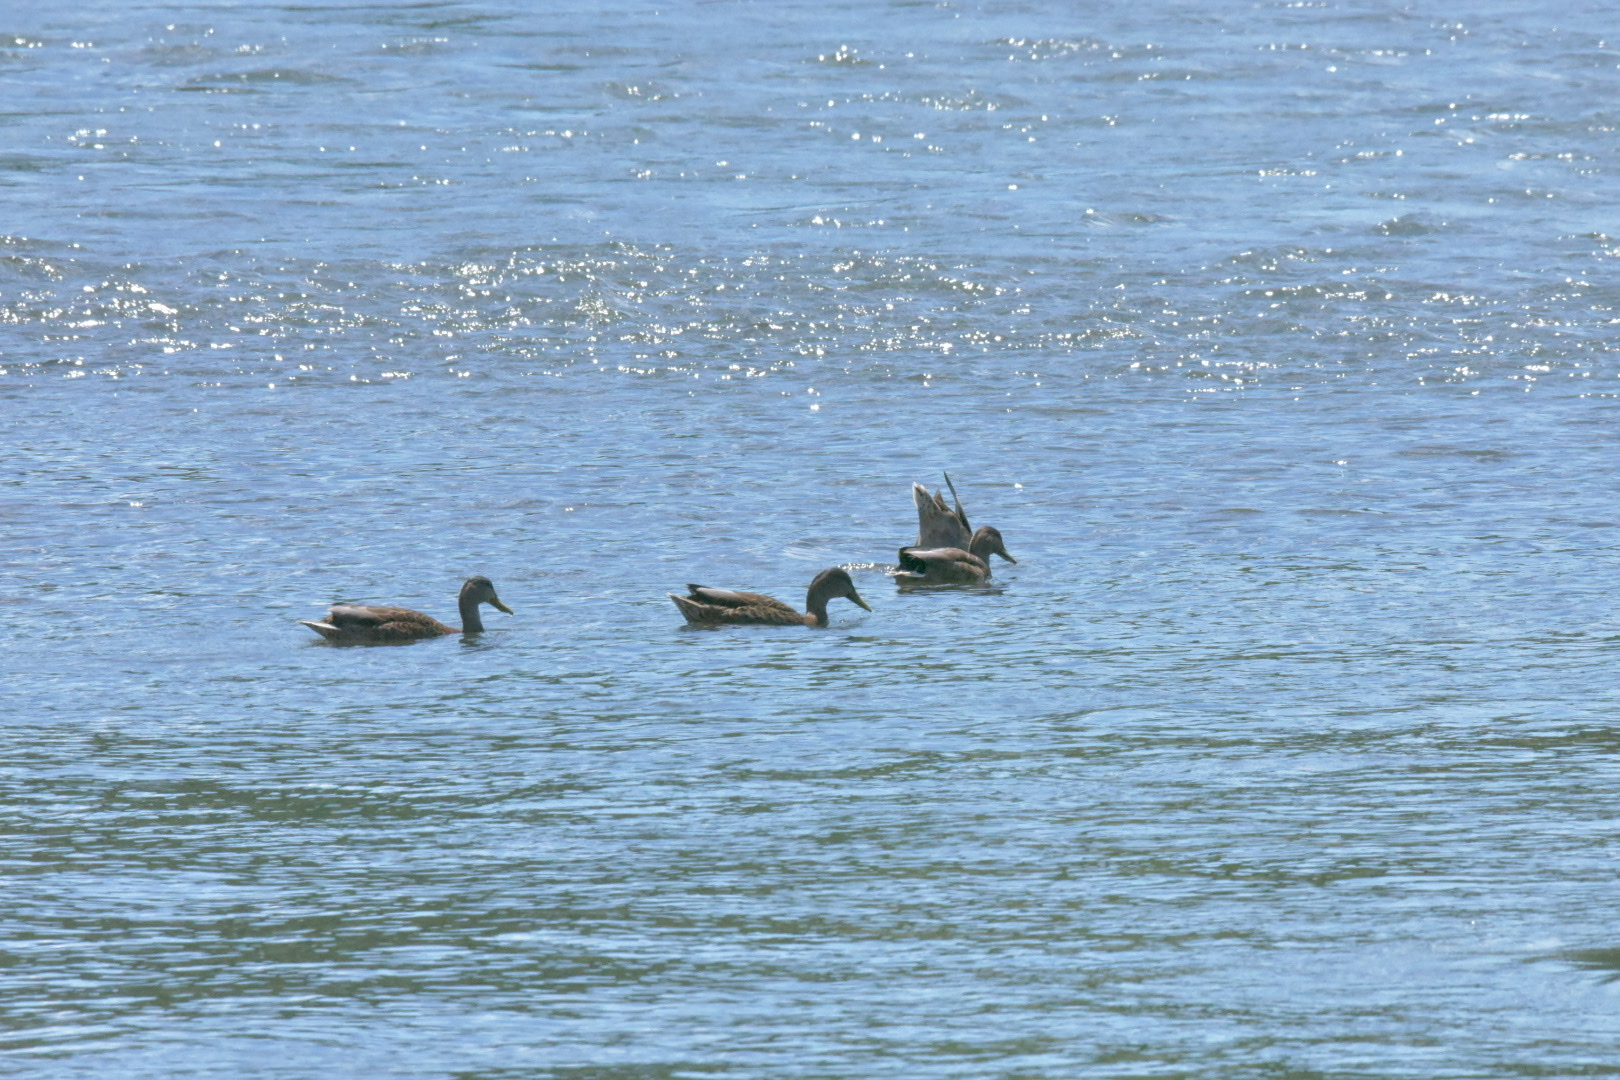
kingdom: Animalia
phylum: Chordata
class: Aves
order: Anseriformes
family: Anatidae
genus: Anas
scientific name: Anas platyrhynchos
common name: Mallard
